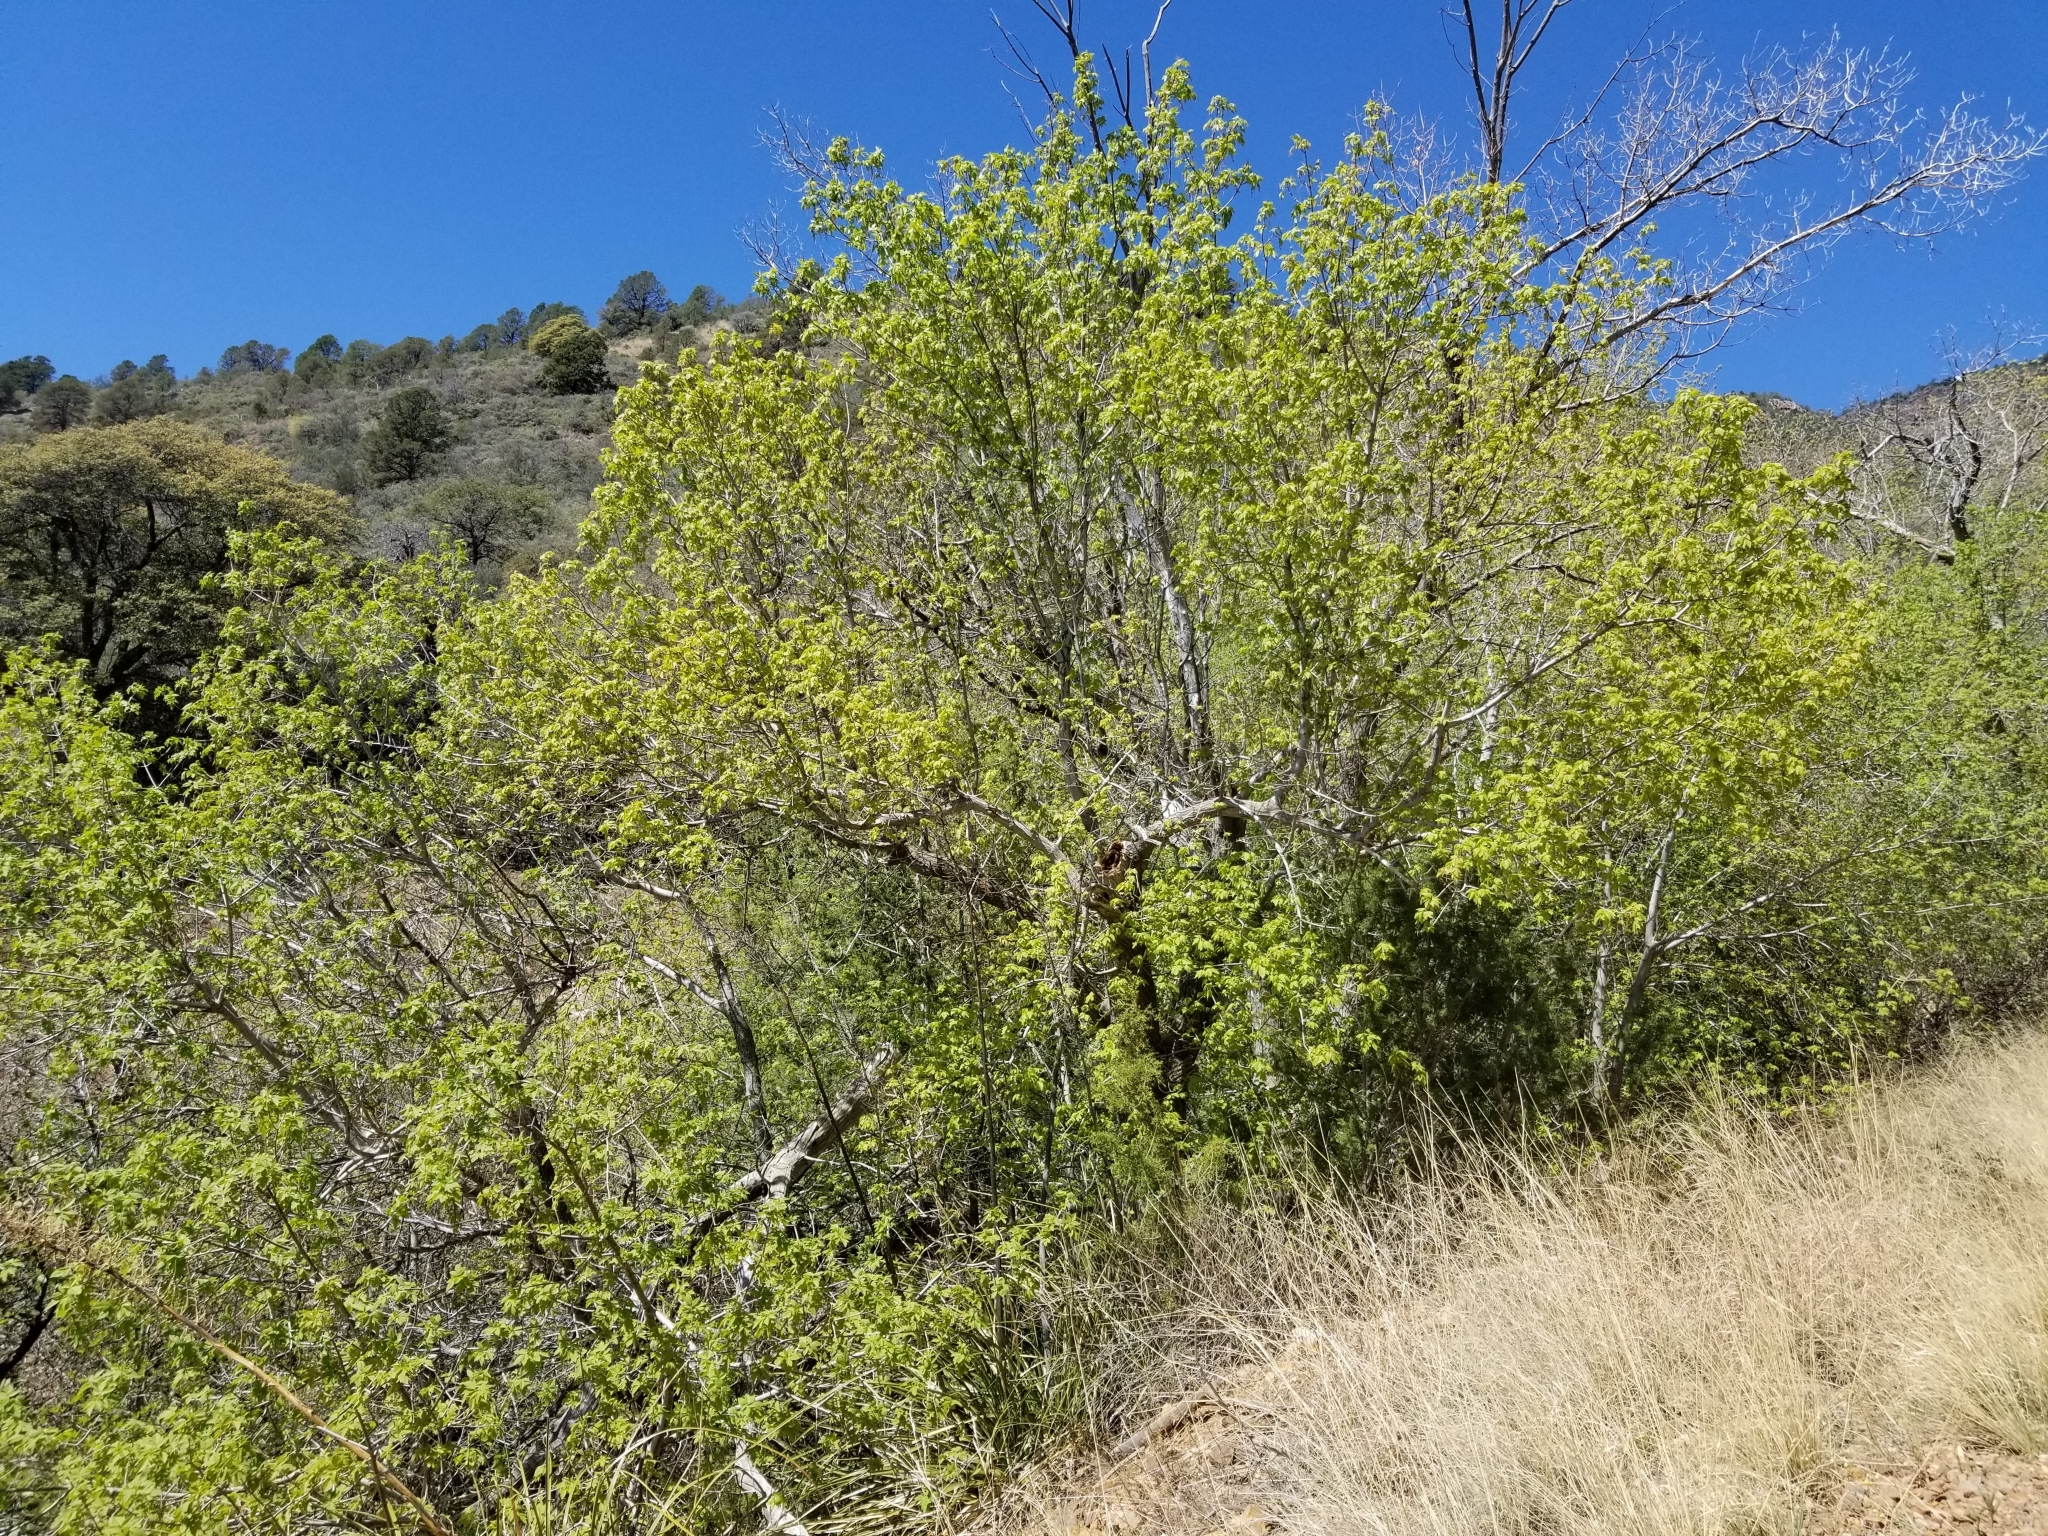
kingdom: Plantae
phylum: Tracheophyta
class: Magnoliopsida
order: Sapindales
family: Sapindaceae
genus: Acer
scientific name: Acer negundo
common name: Ashleaf maple
